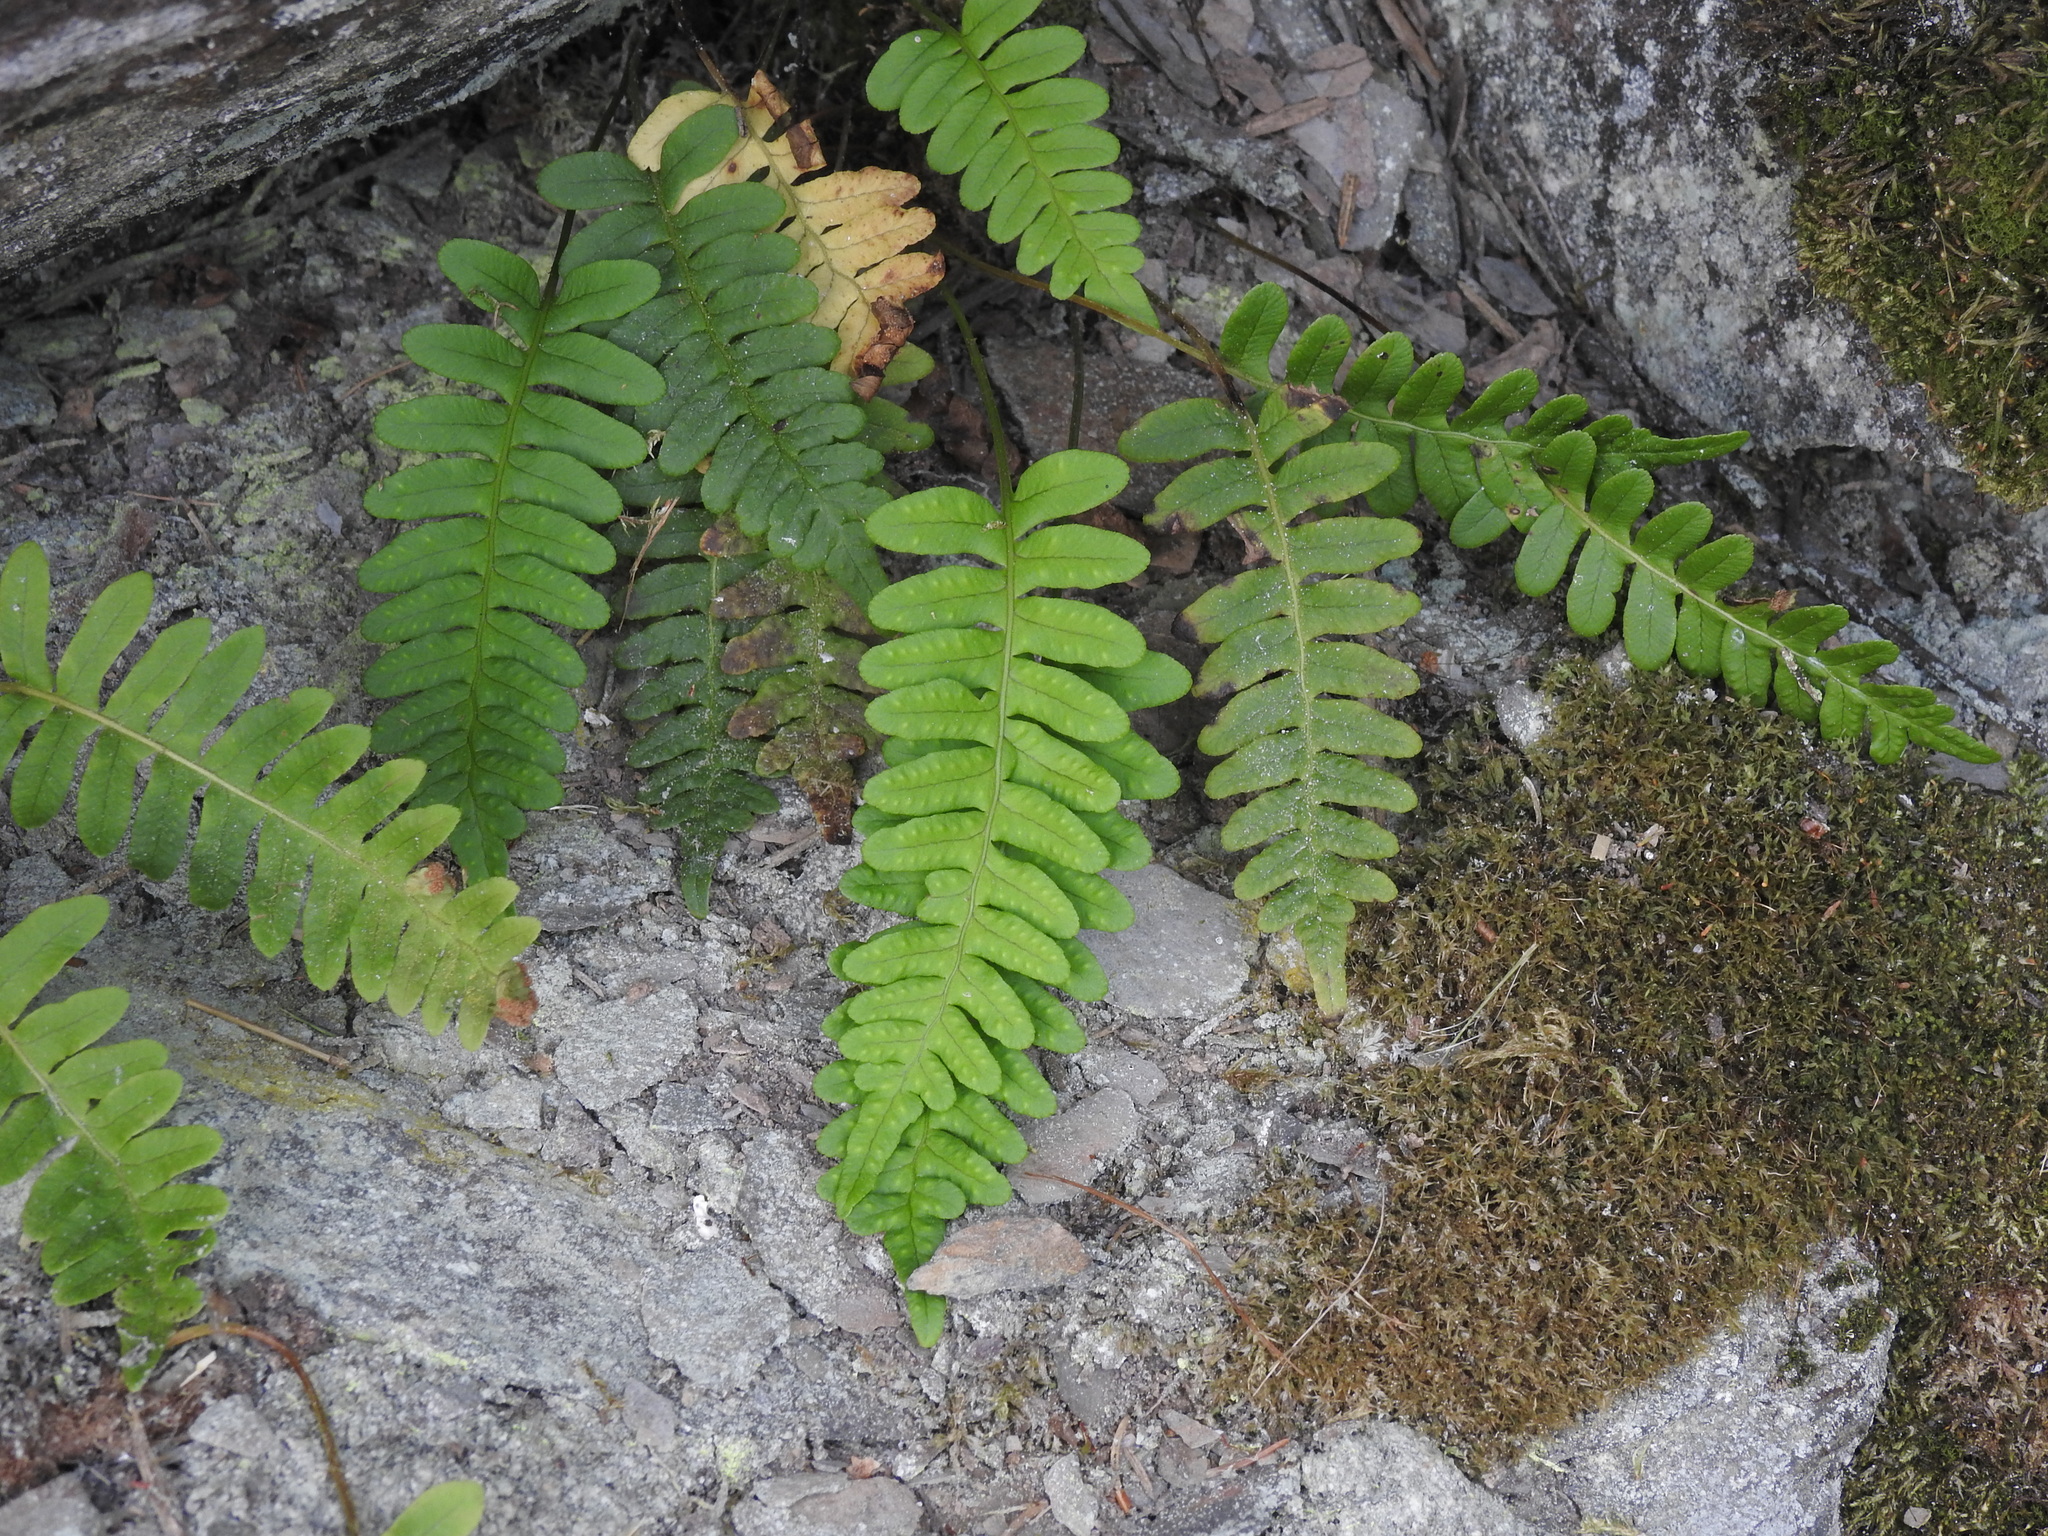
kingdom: Plantae
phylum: Tracheophyta
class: Polypodiopsida
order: Polypodiales
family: Polypodiaceae
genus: Polypodium
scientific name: Polypodium vulgare
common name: Common polypody
